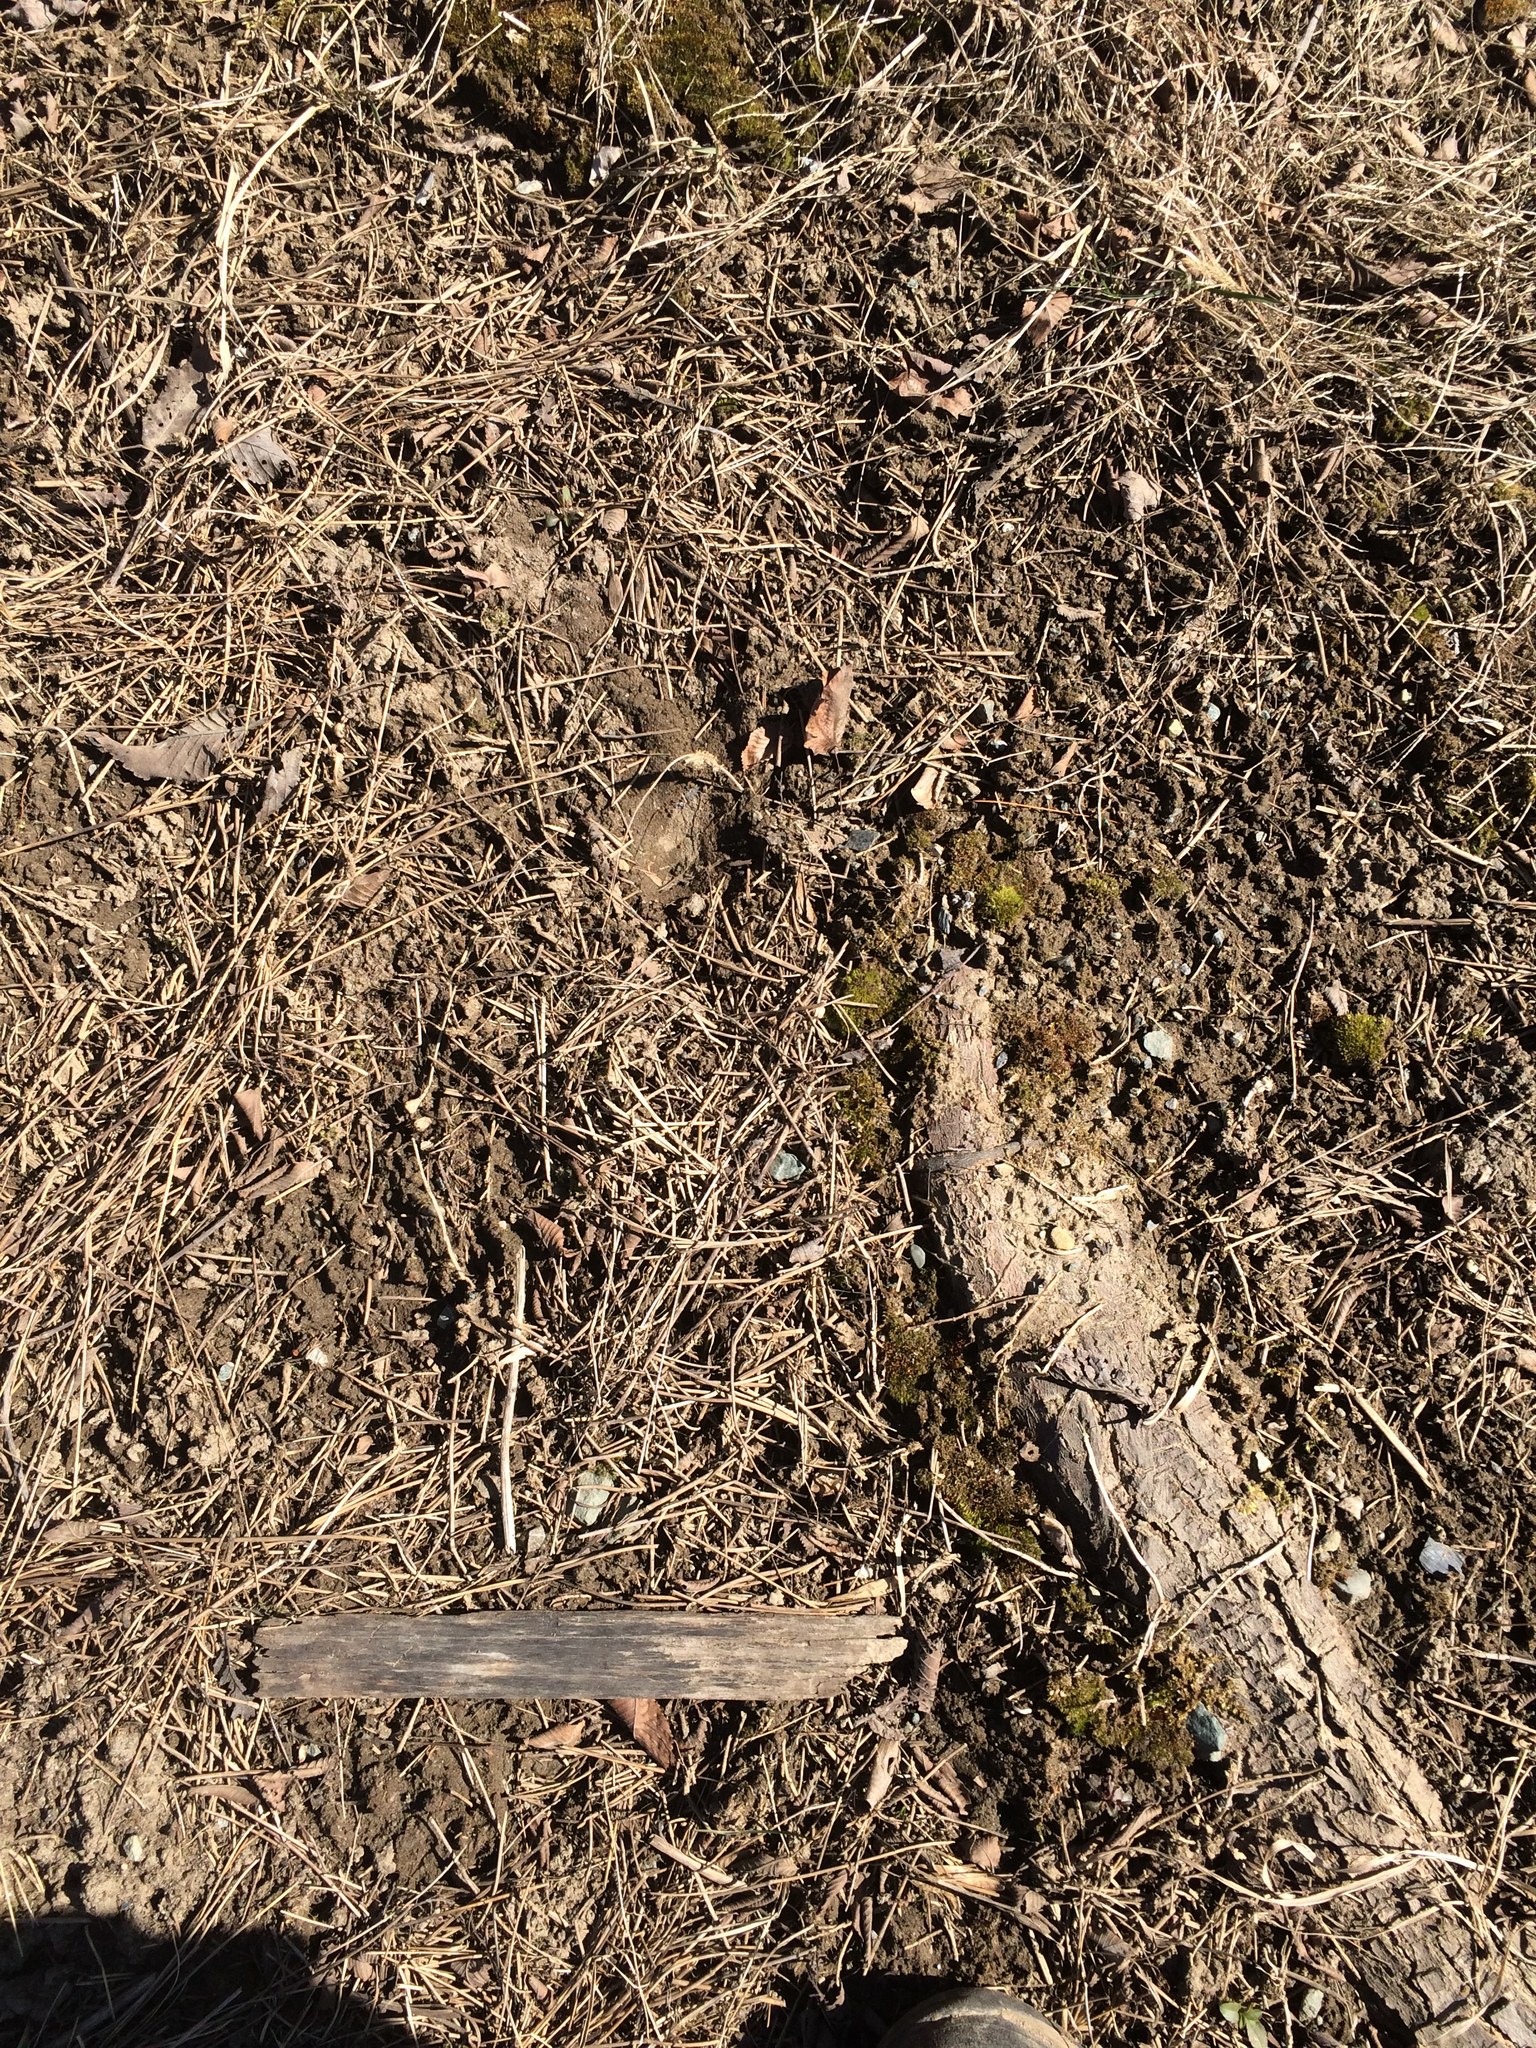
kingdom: Plantae
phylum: Bryophyta
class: Bryopsida
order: Dicranales
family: Ditrichaceae
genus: Pleuridium
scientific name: Pleuridium subulatum
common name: Awl-leaved earth-moss
